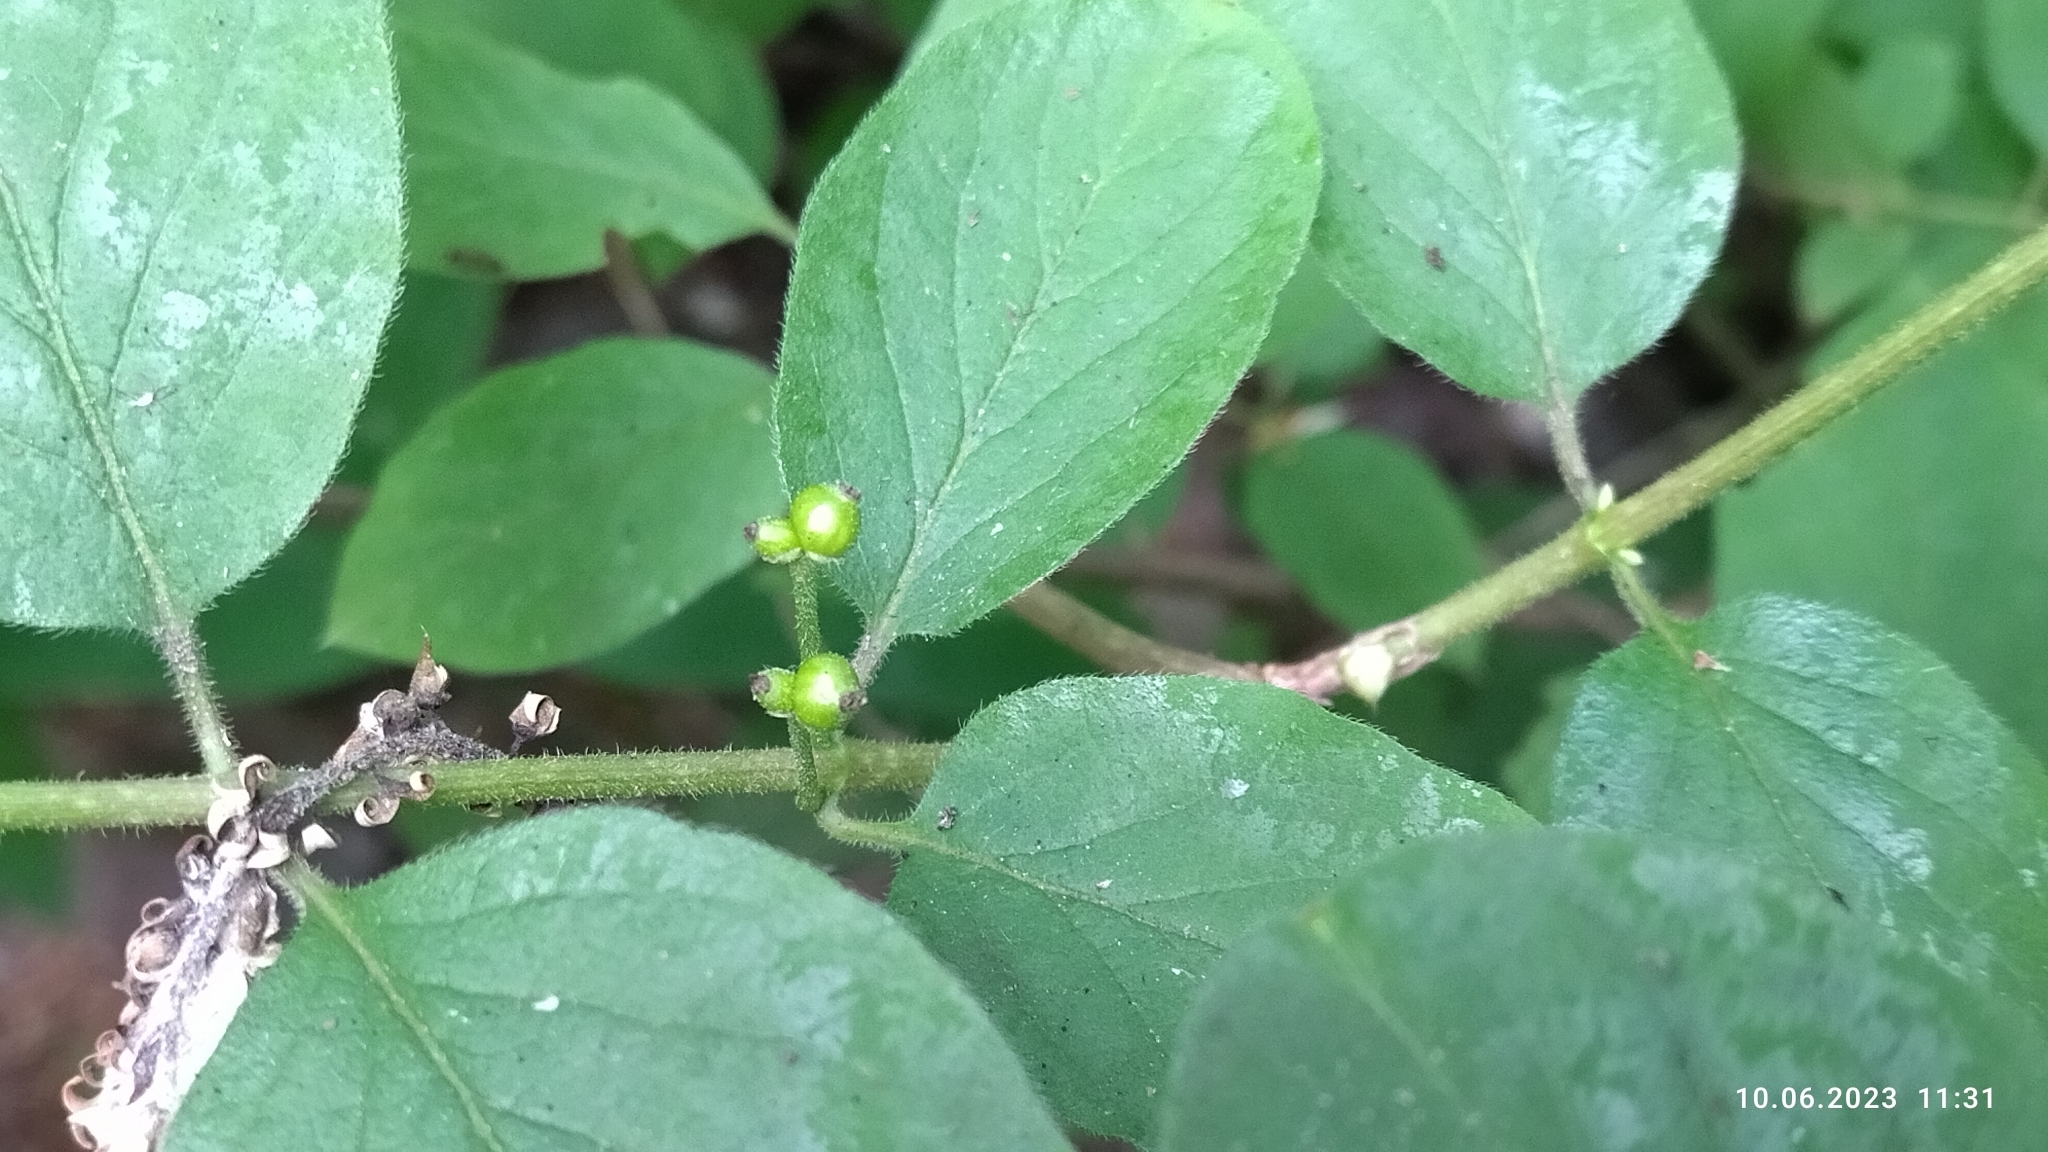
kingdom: Plantae
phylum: Tracheophyta
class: Magnoliopsida
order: Dipsacales
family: Caprifoliaceae
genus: Lonicera
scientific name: Lonicera xylosteum
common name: Fly honeysuckle
